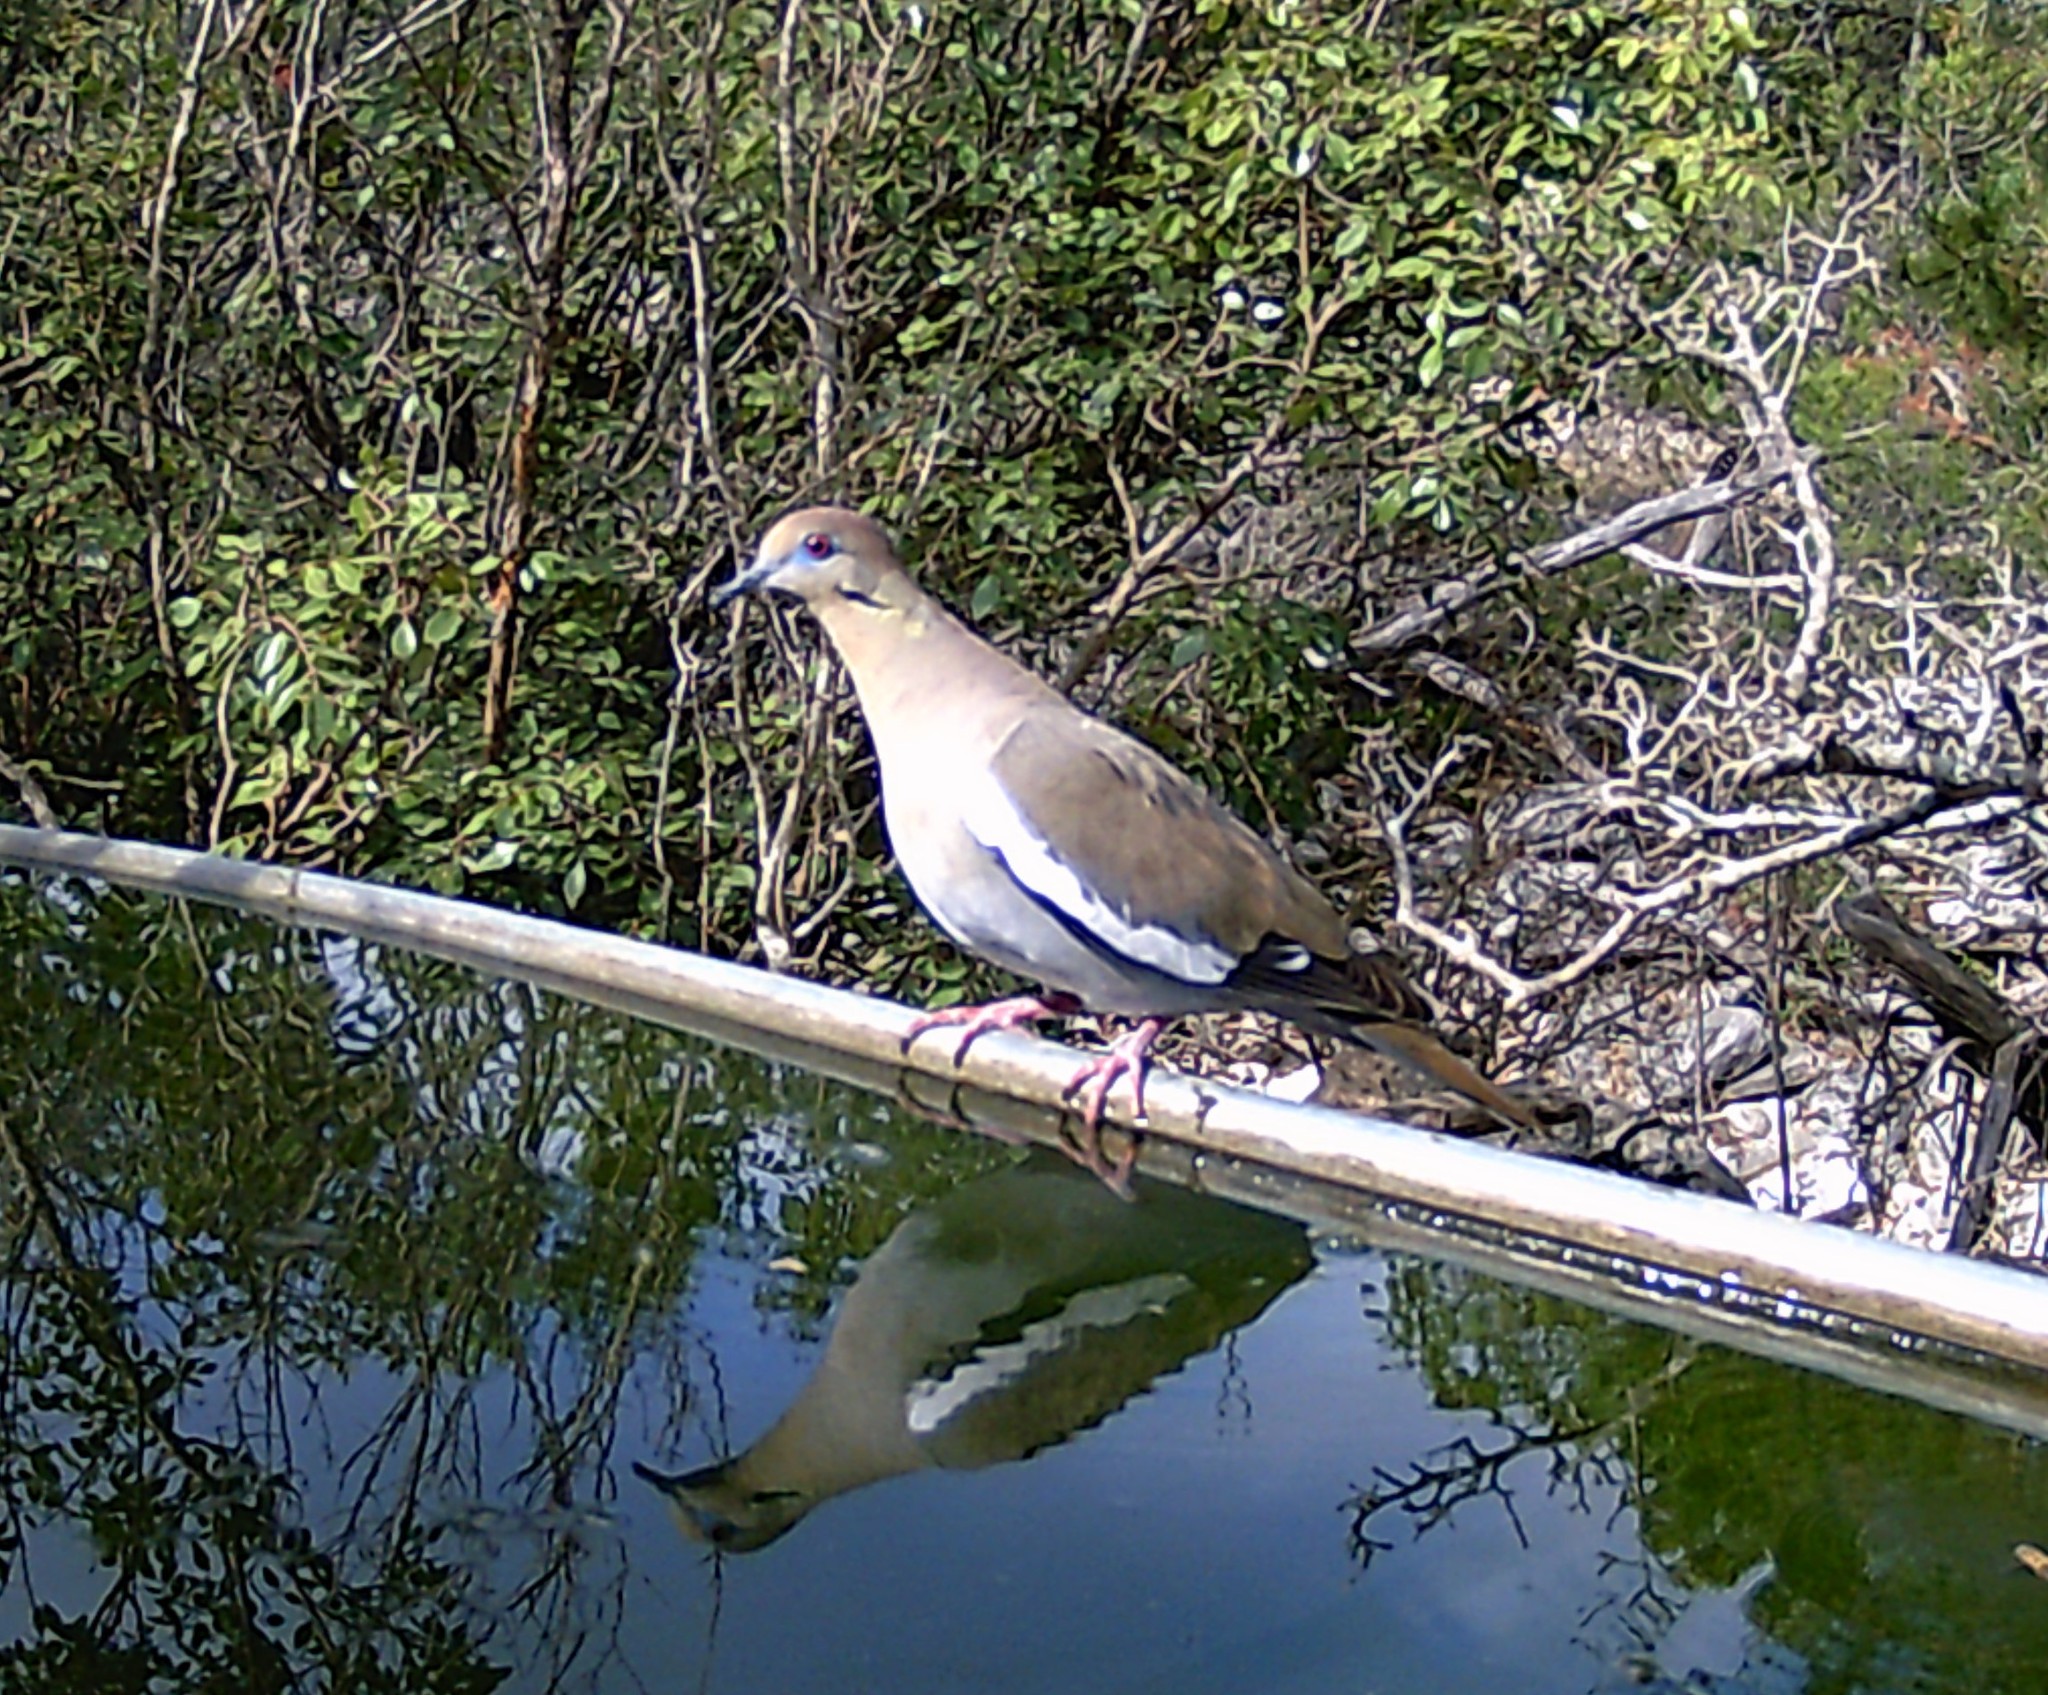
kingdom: Animalia
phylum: Chordata
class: Aves
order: Columbiformes
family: Columbidae
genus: Zenaida
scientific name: Zenaida asiatica
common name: White-winged dove
